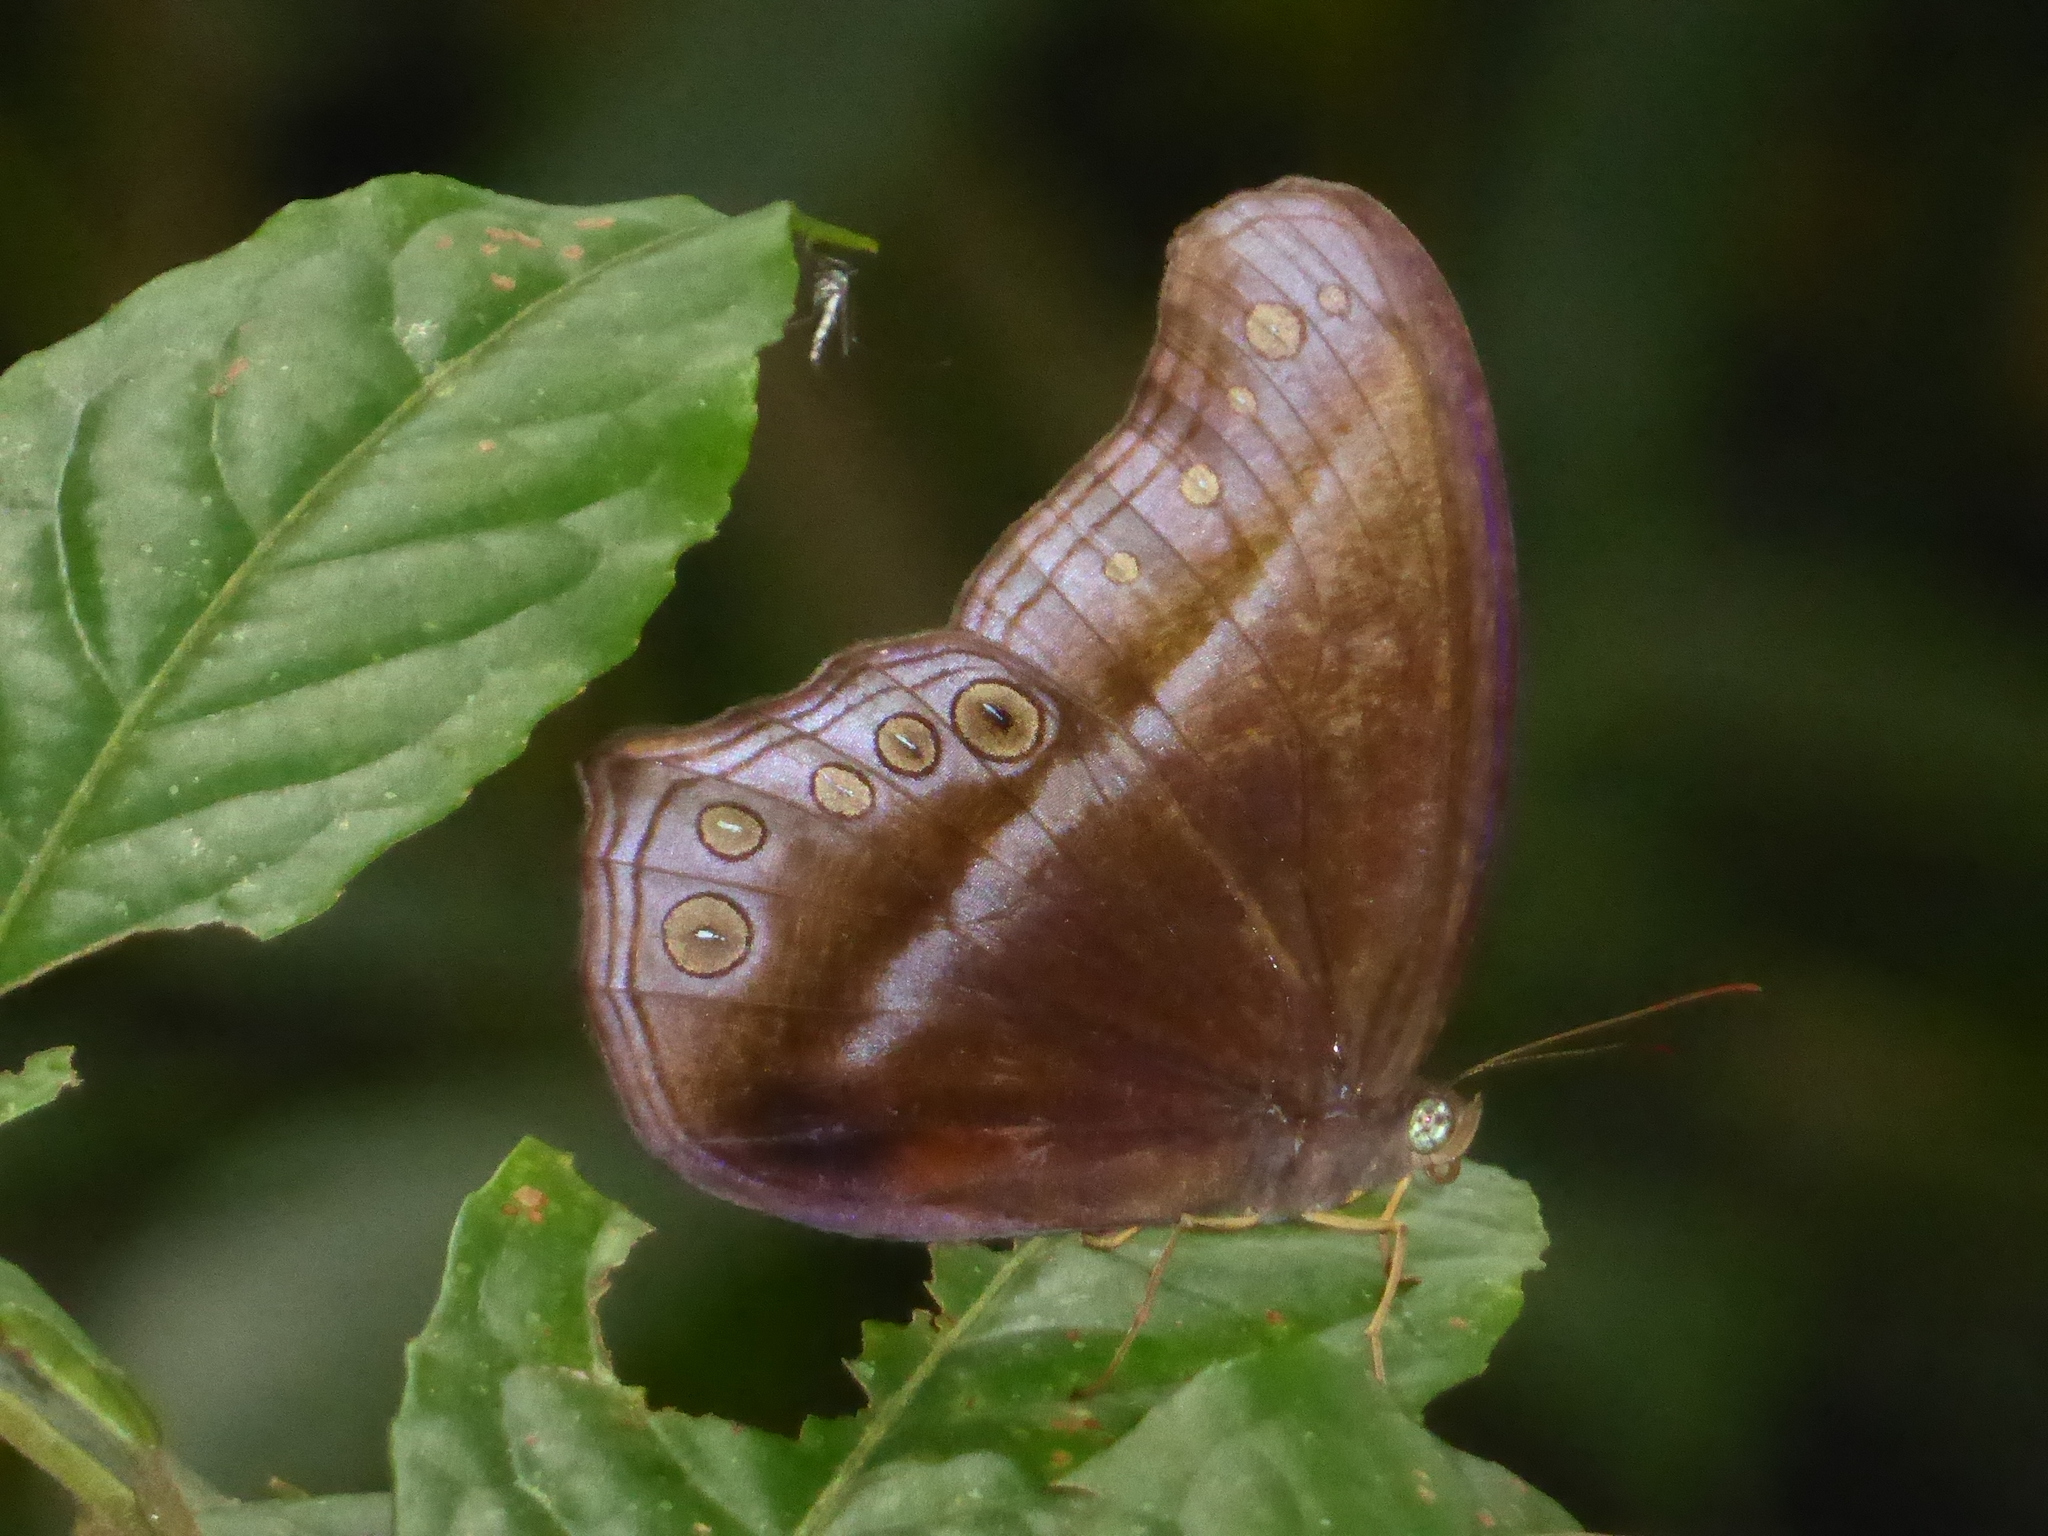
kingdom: Animalia
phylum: Arthropoda
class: Insecta
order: Lepidoptera
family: Nymphalidae
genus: Coelites
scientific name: Coelites epiminthia
